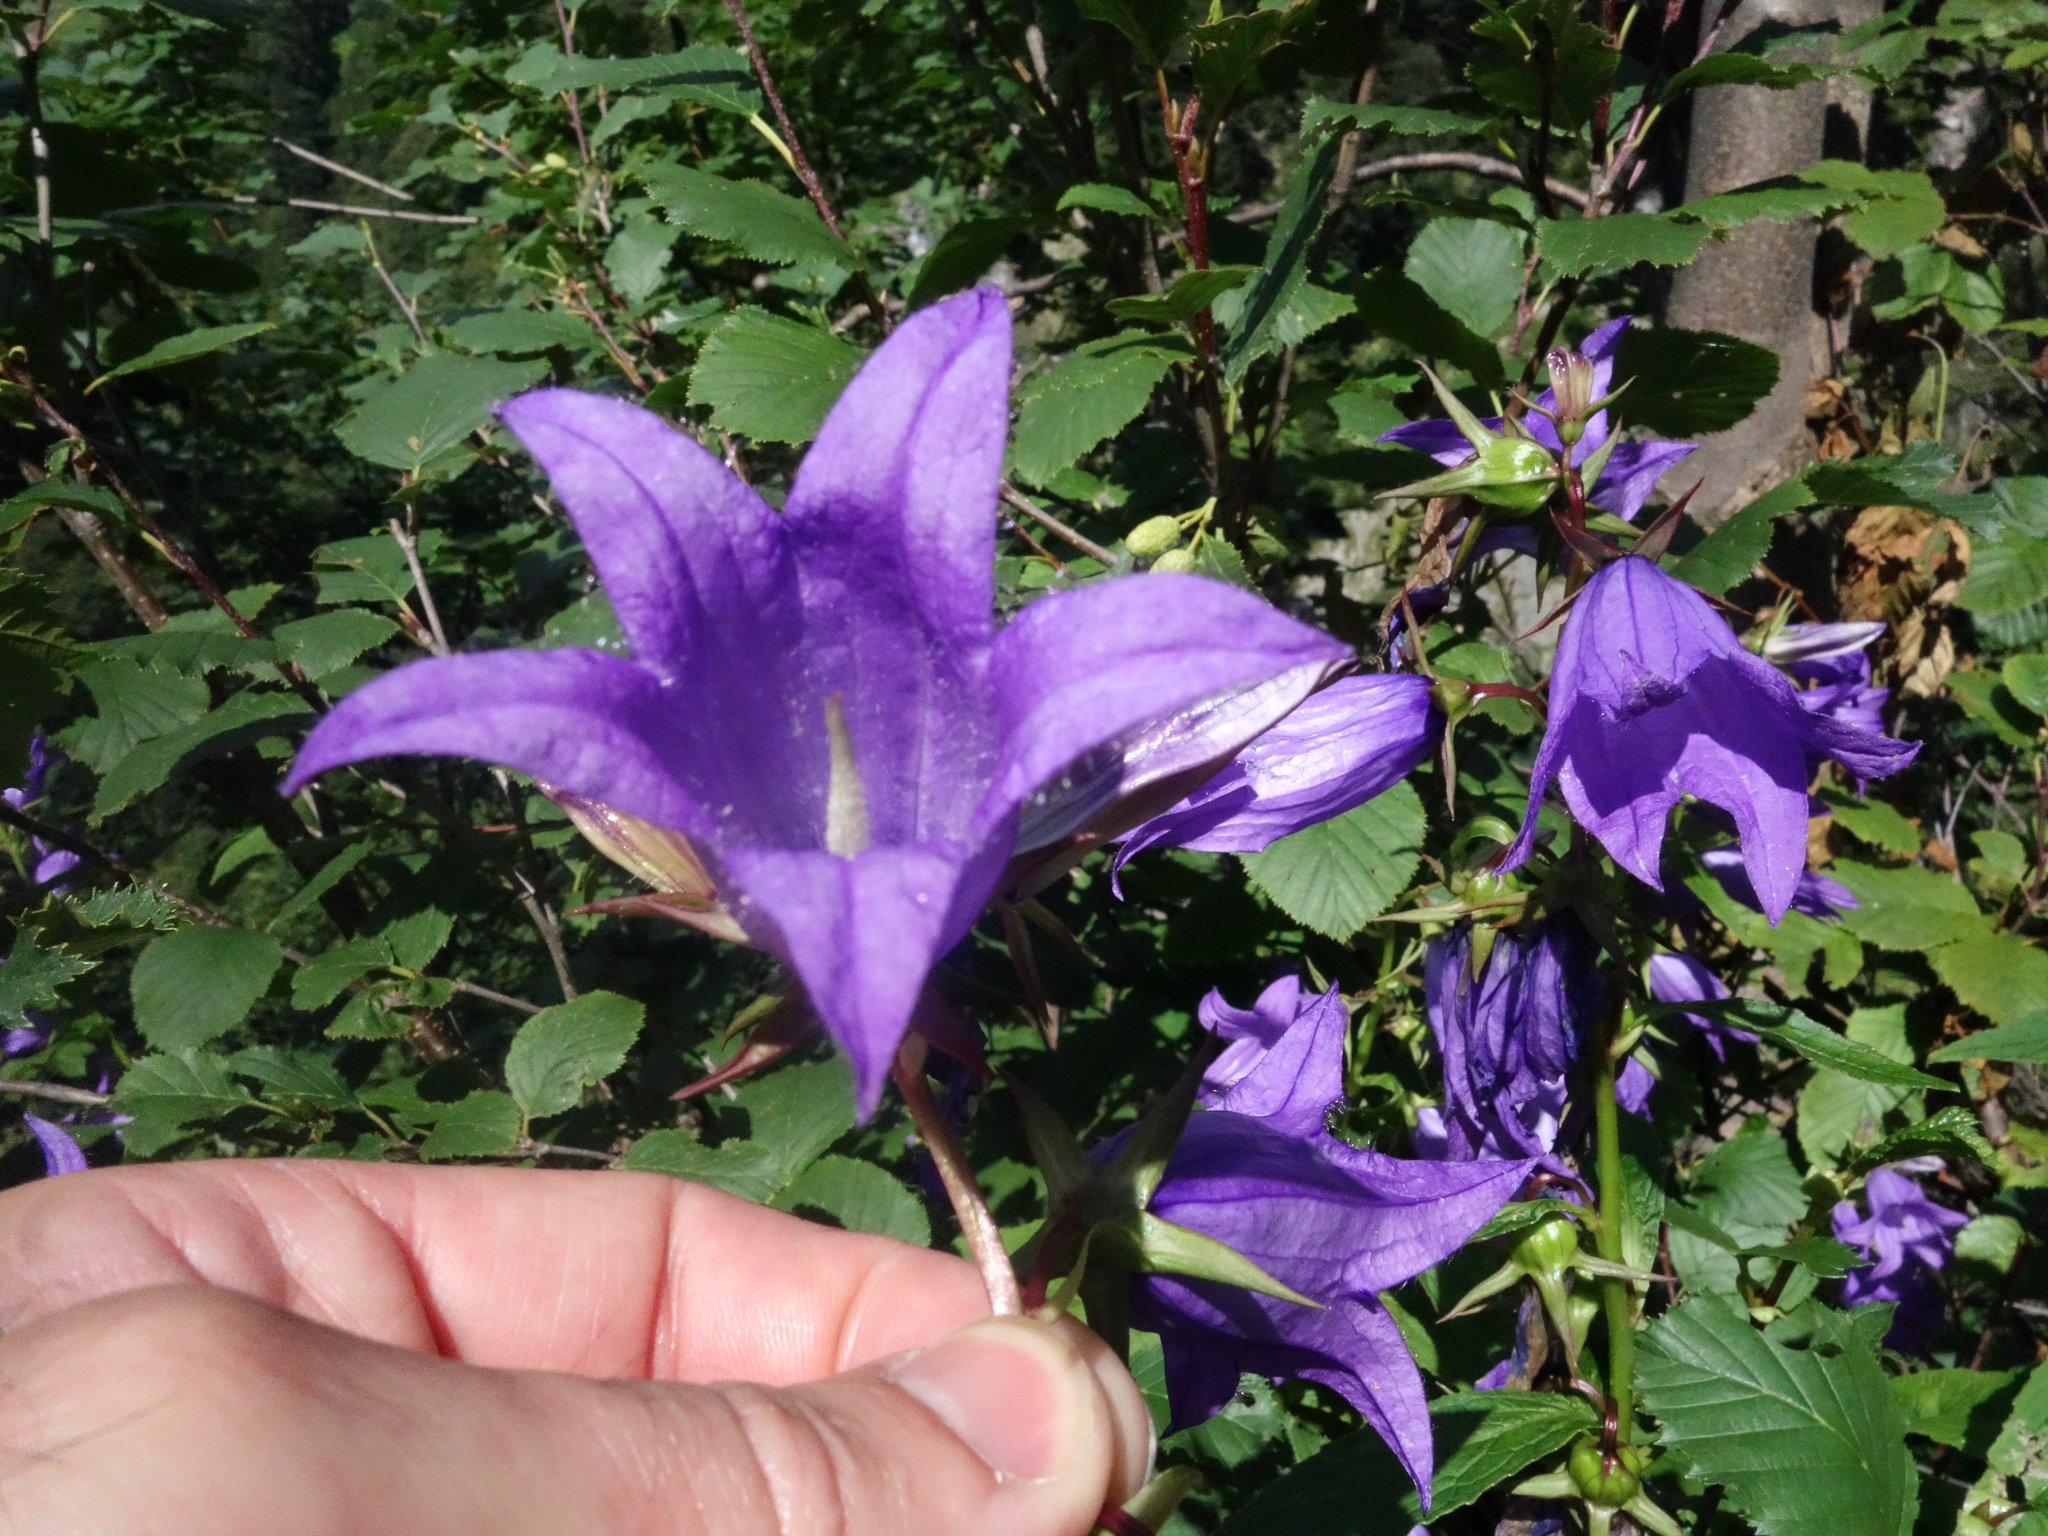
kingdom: Plantae
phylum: Tracheophyta
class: Magnoliopsida
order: Asterales
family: Campanulaceae
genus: Campanula
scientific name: Campanula latifolia
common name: Giant bellflower
